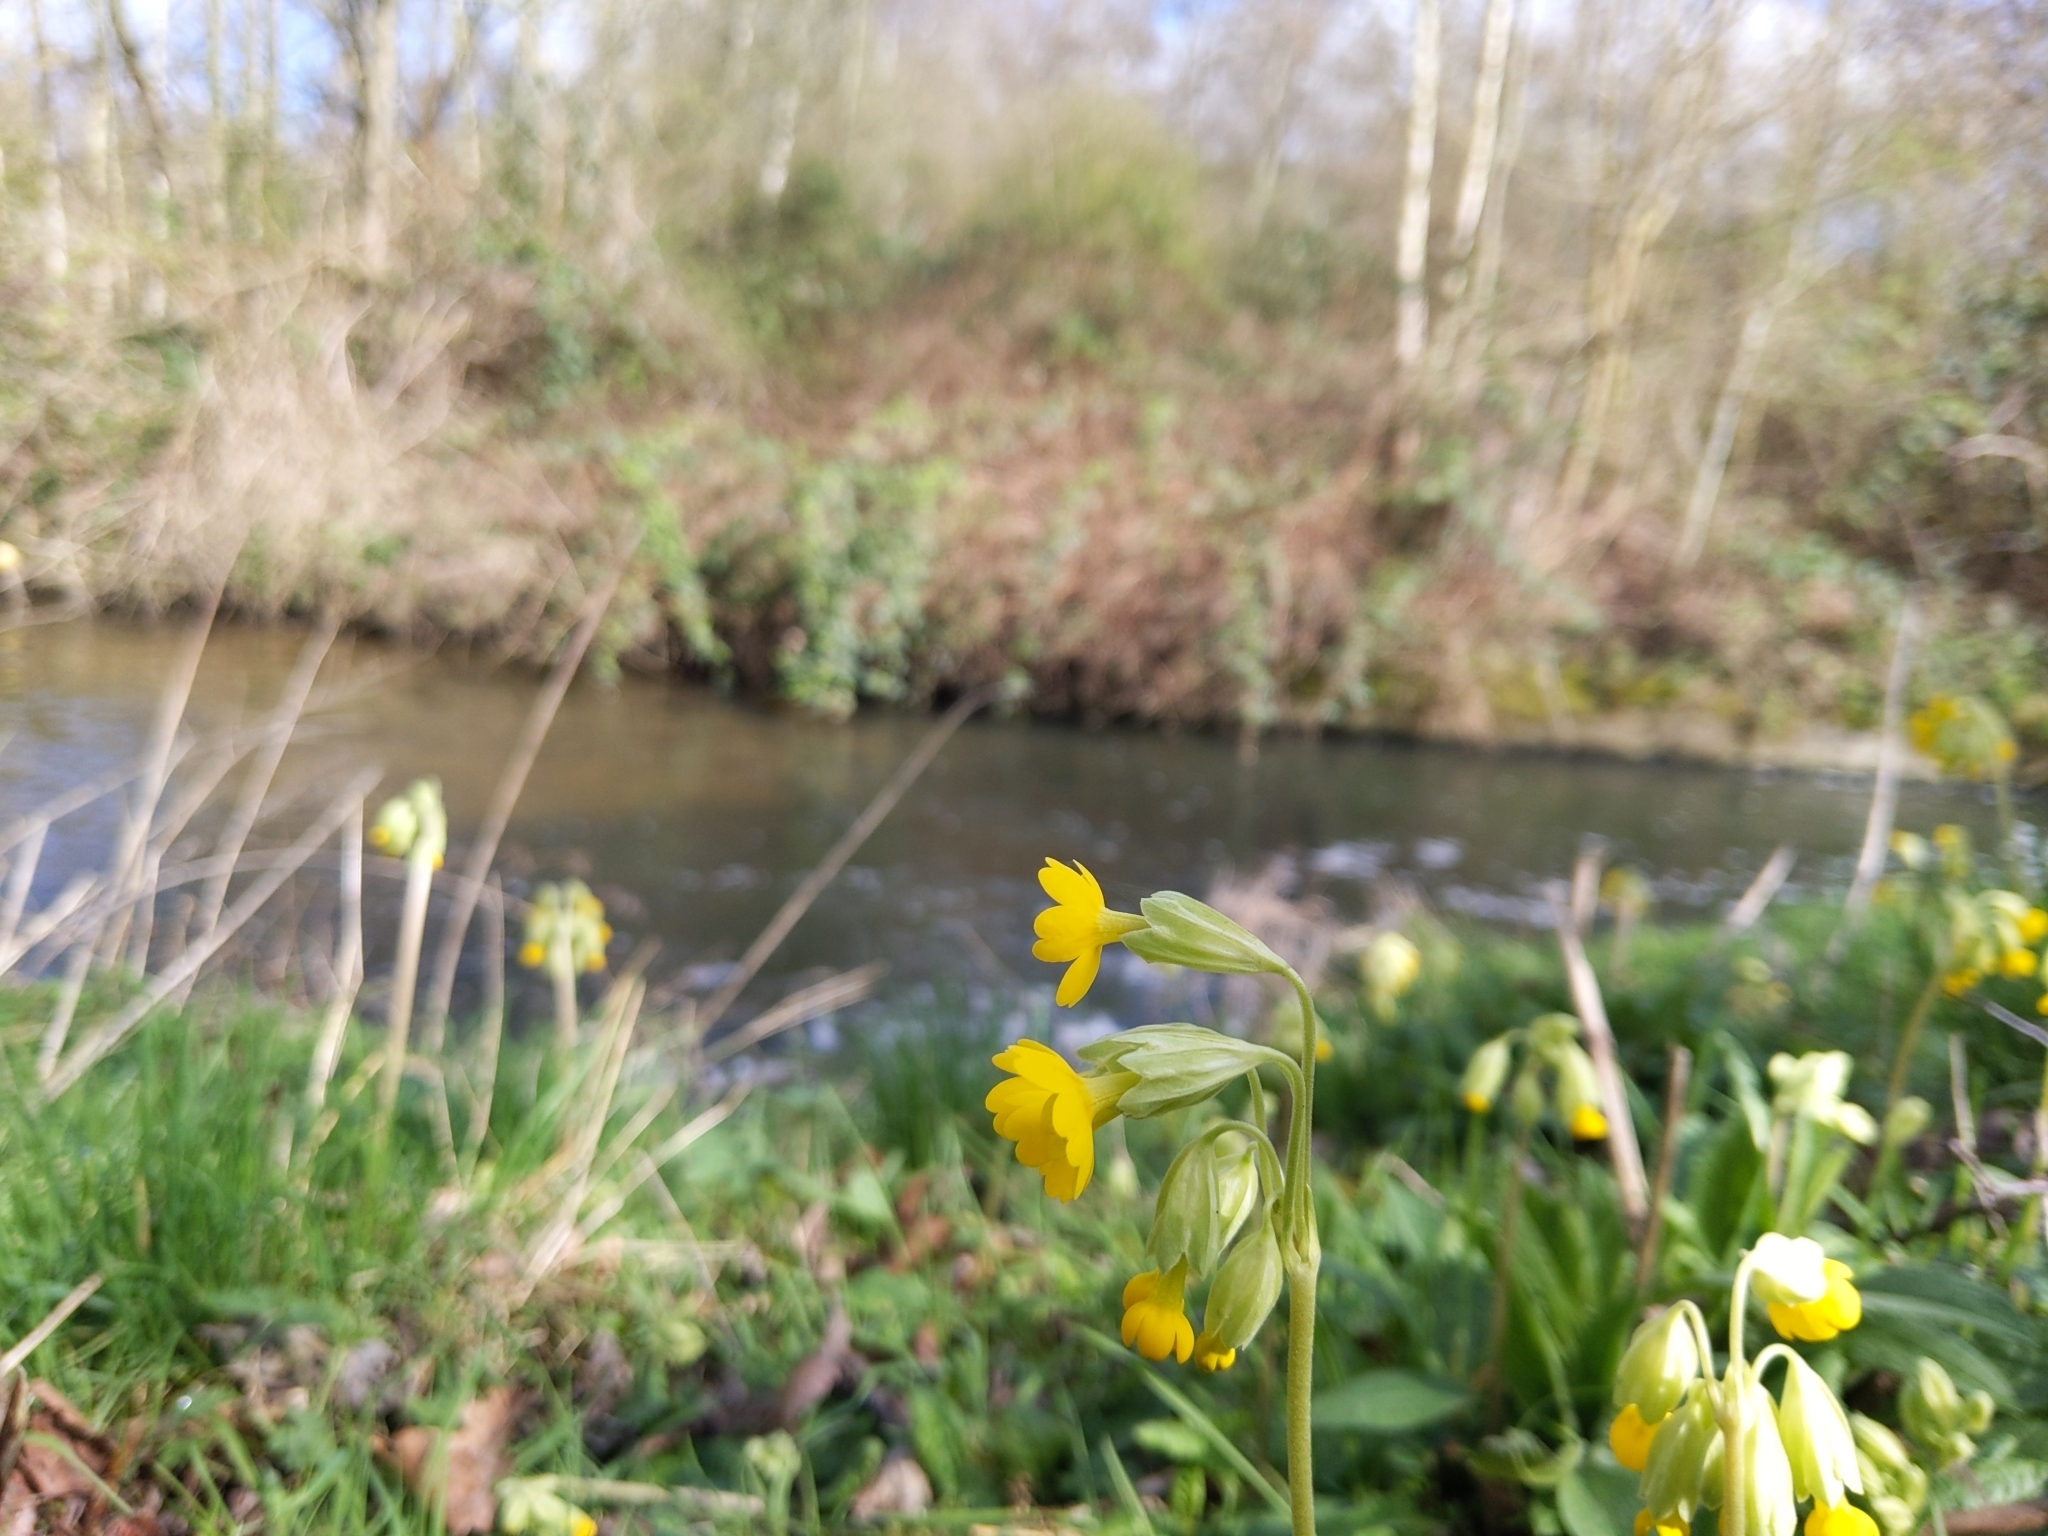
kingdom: Plantae
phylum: Tracheophyta
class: Magnoliopsida
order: Ericales
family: Primulaceae
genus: Primula
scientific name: Primula veris
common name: Cowslip
